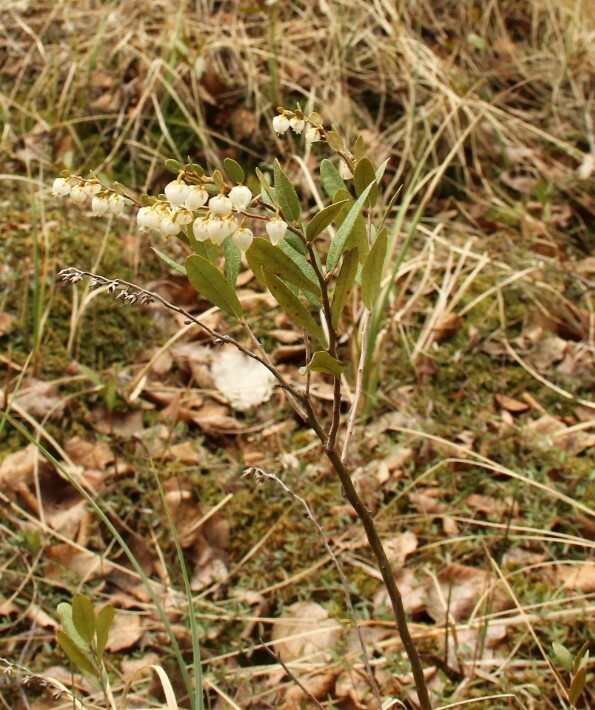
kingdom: Plantae
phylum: Tracheophyta
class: Magnoliopsida
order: Ericales
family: Ericaceae
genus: Chamaedaphne
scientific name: Chamaedaphne calyculata
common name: Leatherleaf
